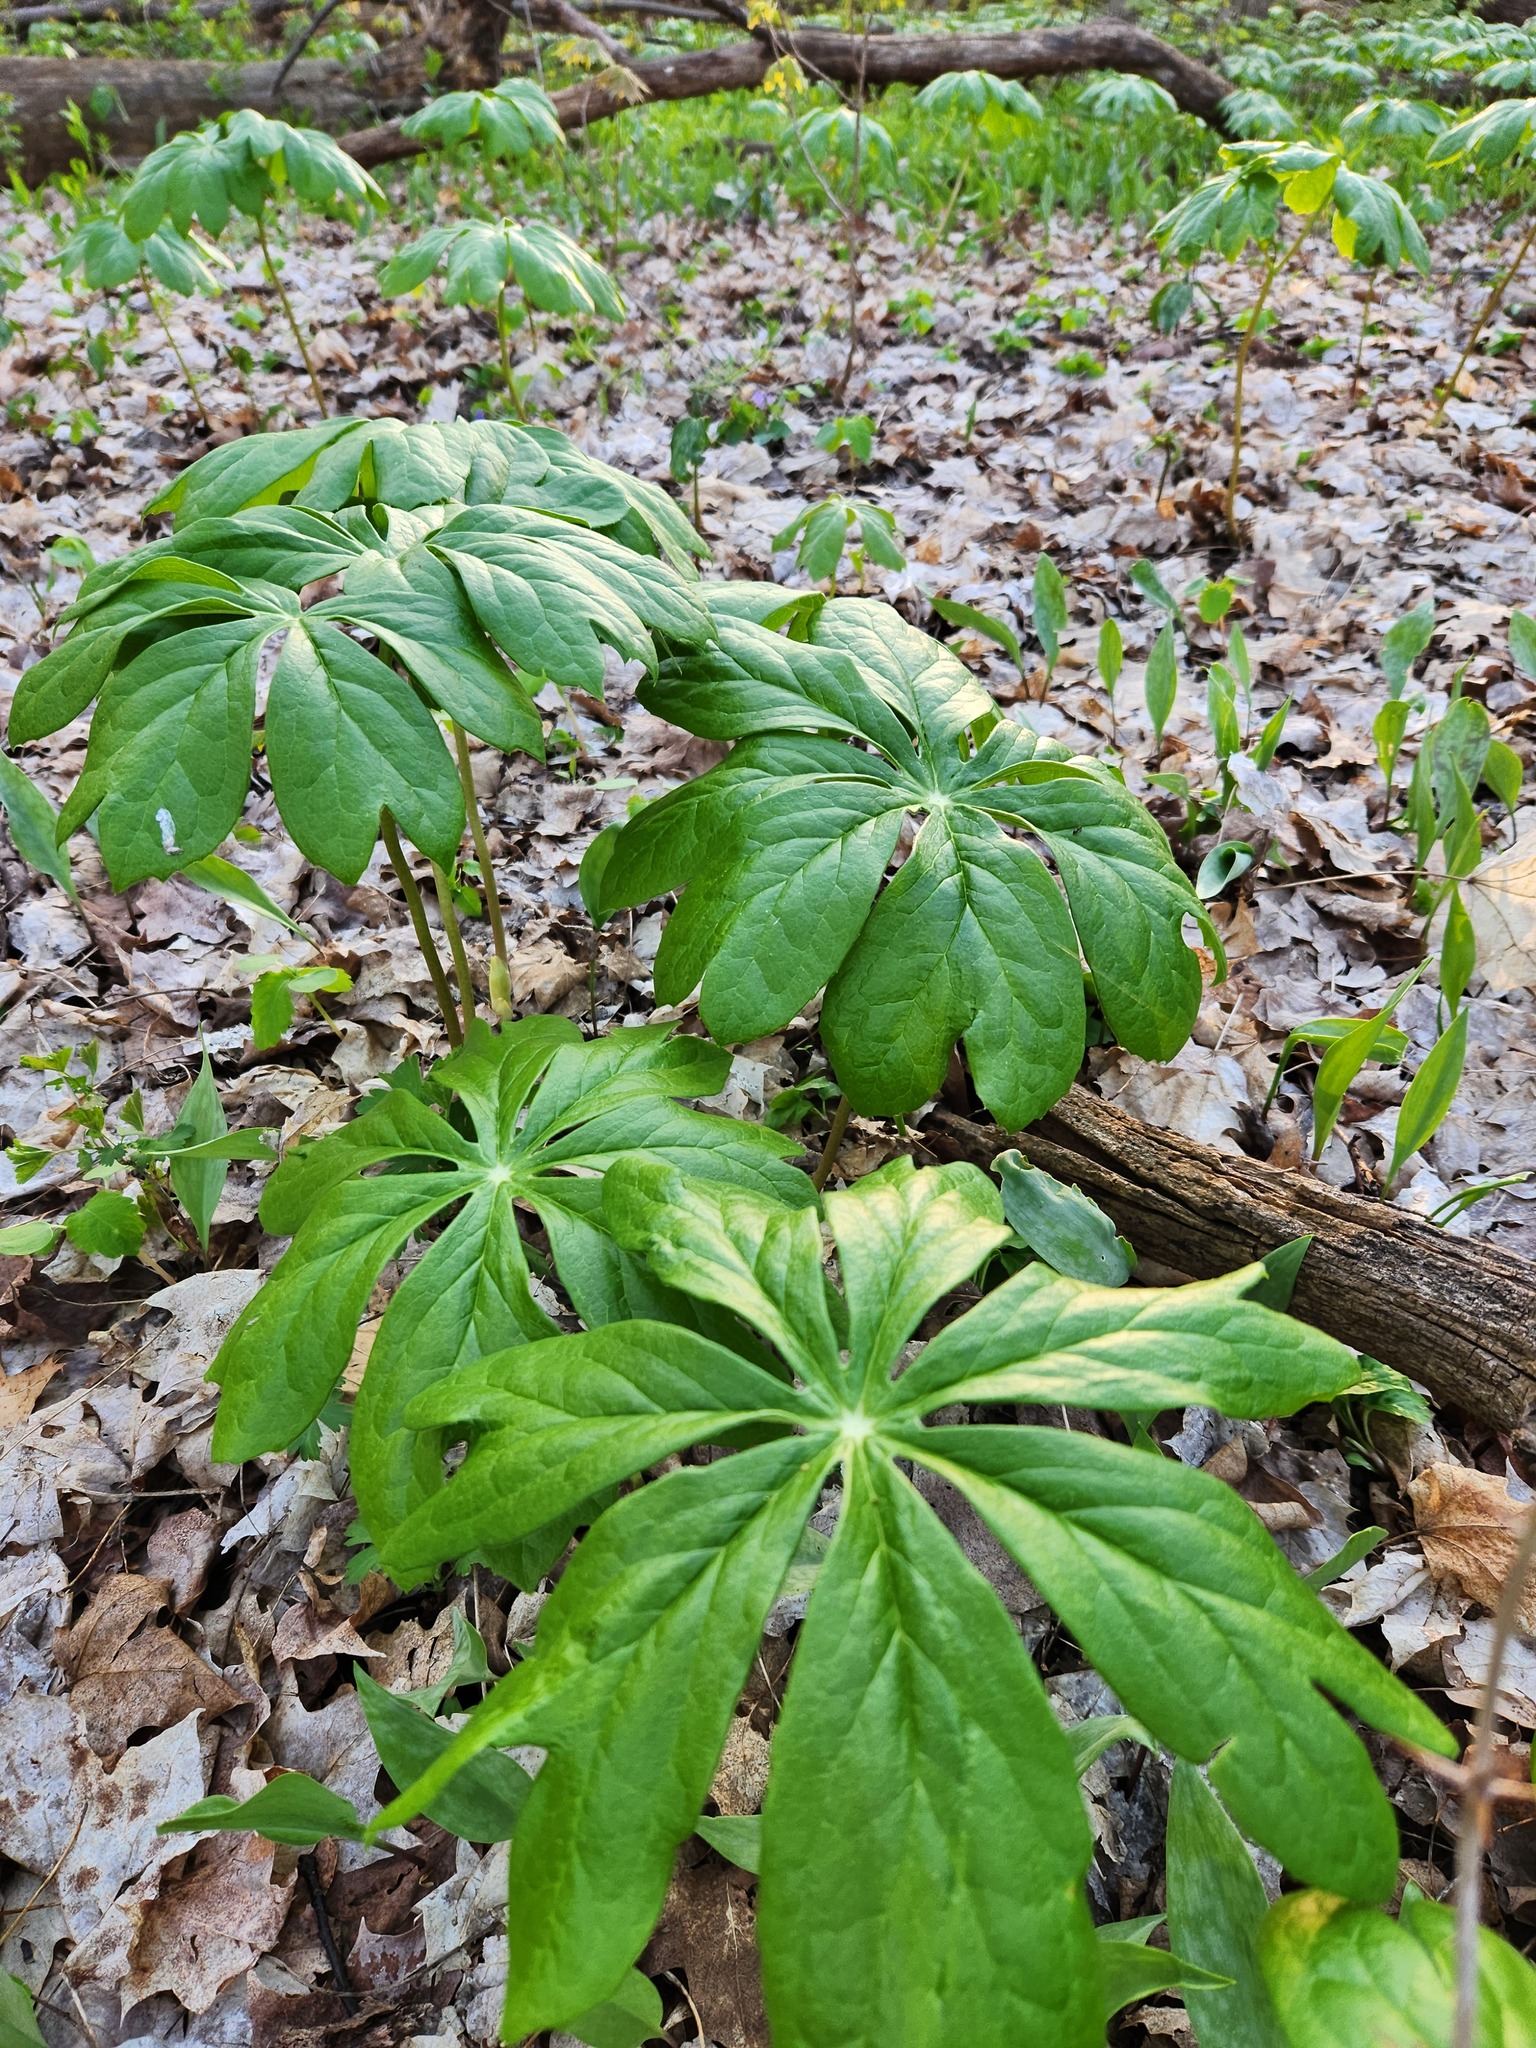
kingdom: Plantae
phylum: Tracheophyta
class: Magnoliopsida
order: Ranunculales
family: Berberidaceae
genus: Podophyllum
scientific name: Podophyllum peltatum
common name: Wild mandrake
